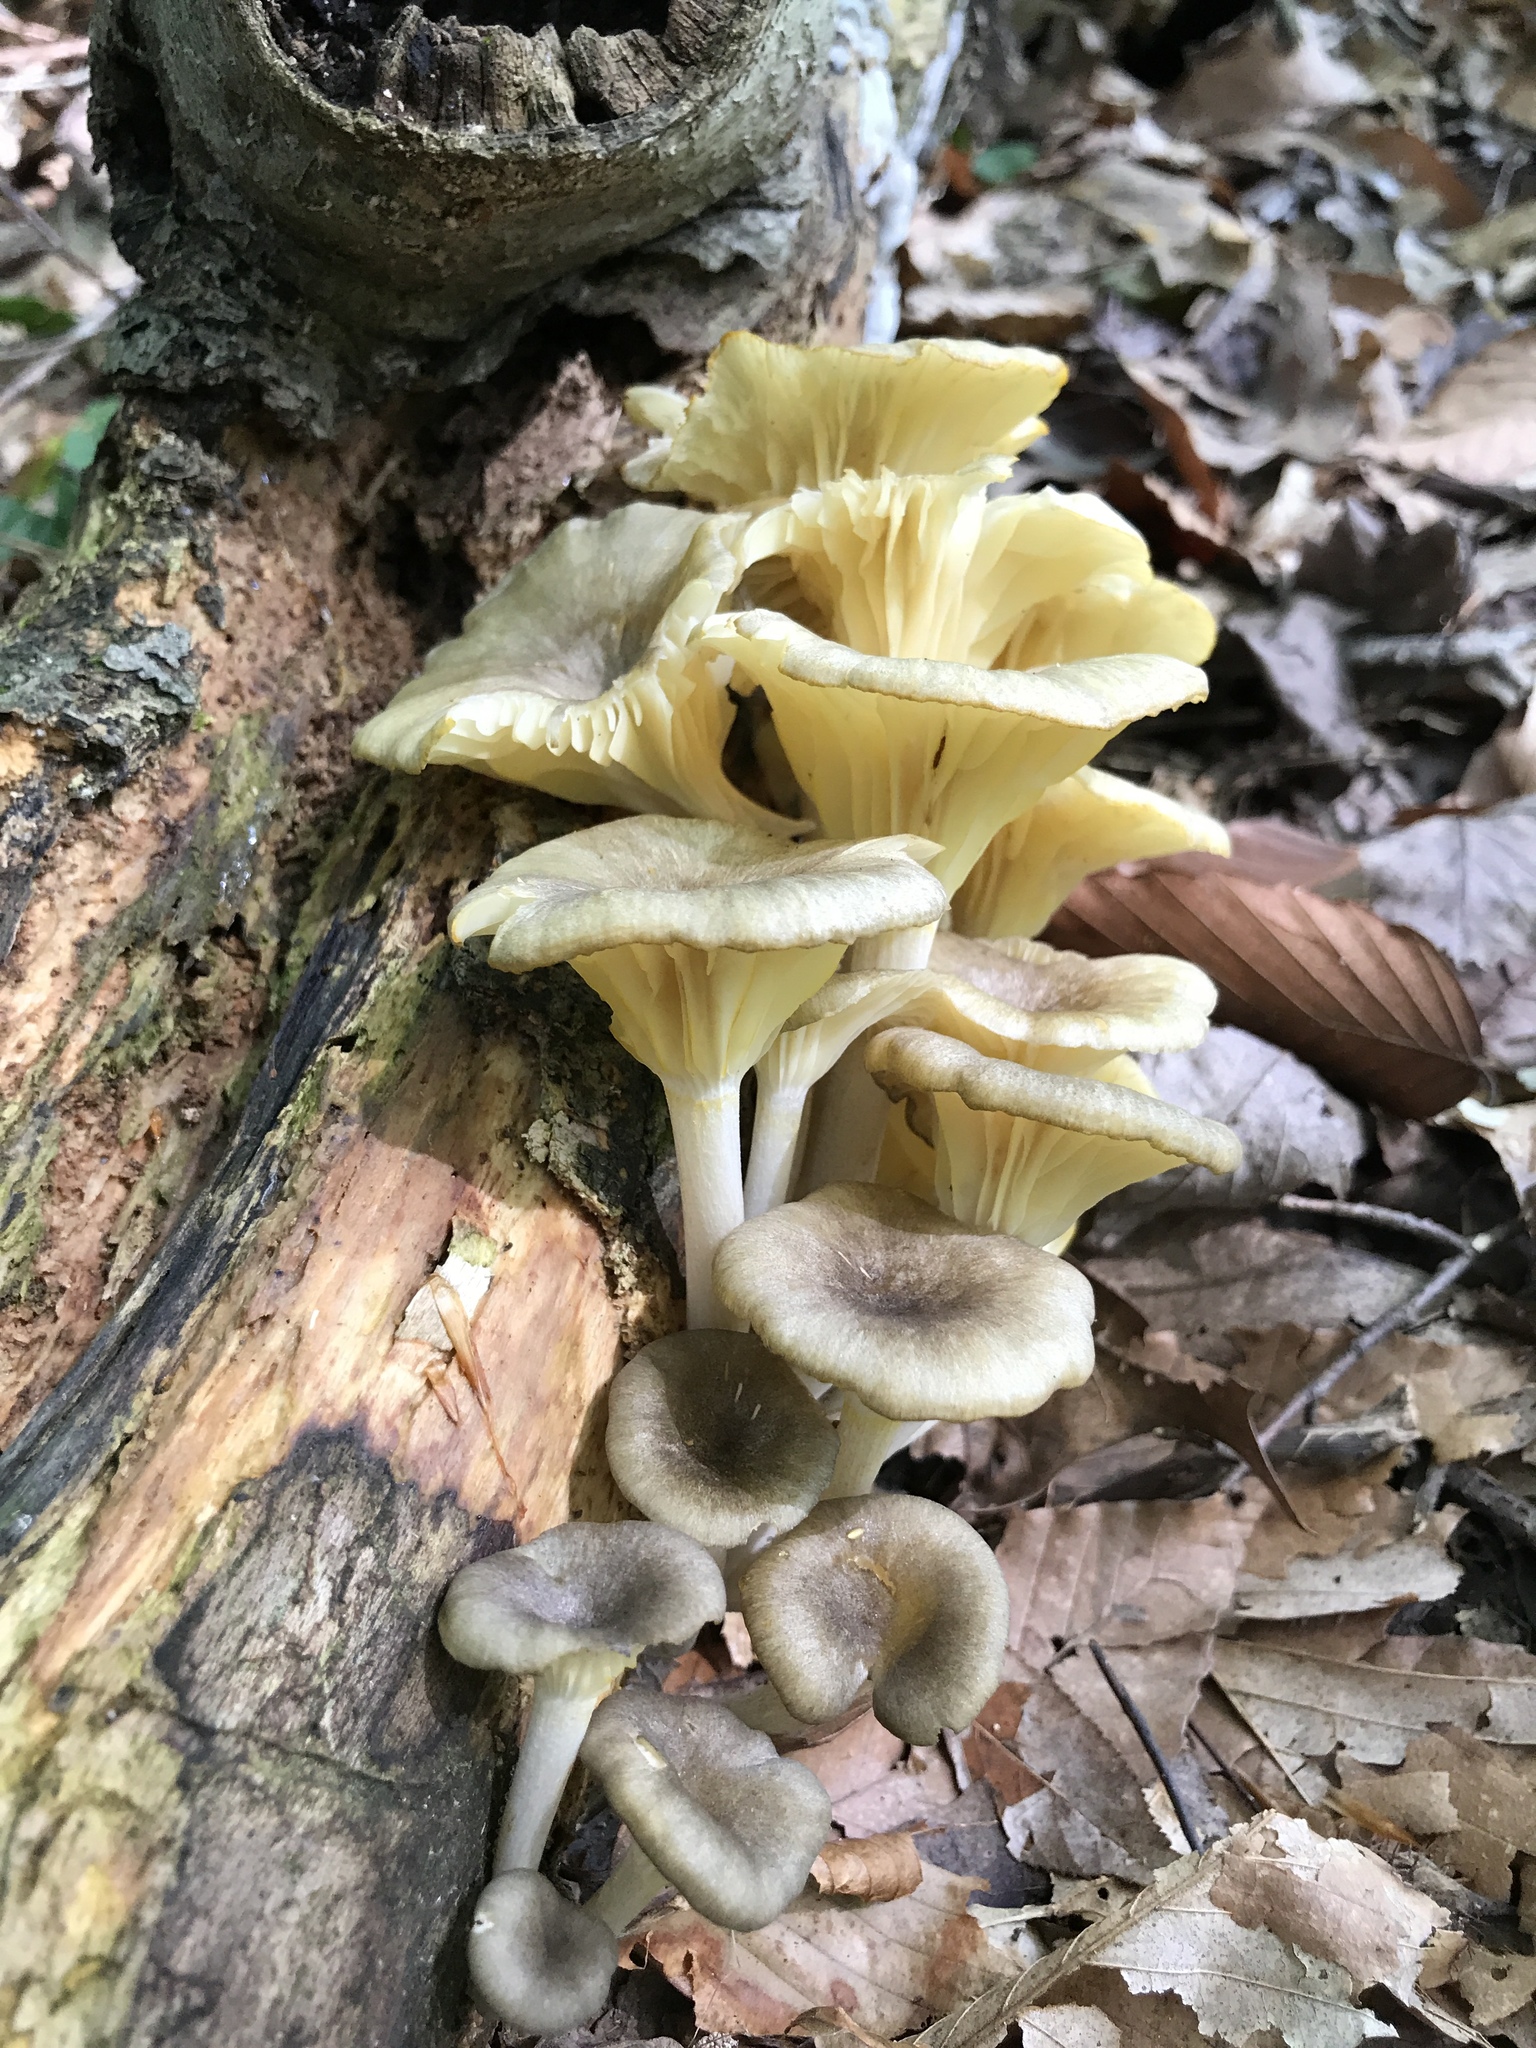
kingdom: Fungi
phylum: Basidiomycota
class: Agaricomycetes
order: Agaricales
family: Marasmiaceae
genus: Gerronema
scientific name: Gerronema strombodes
